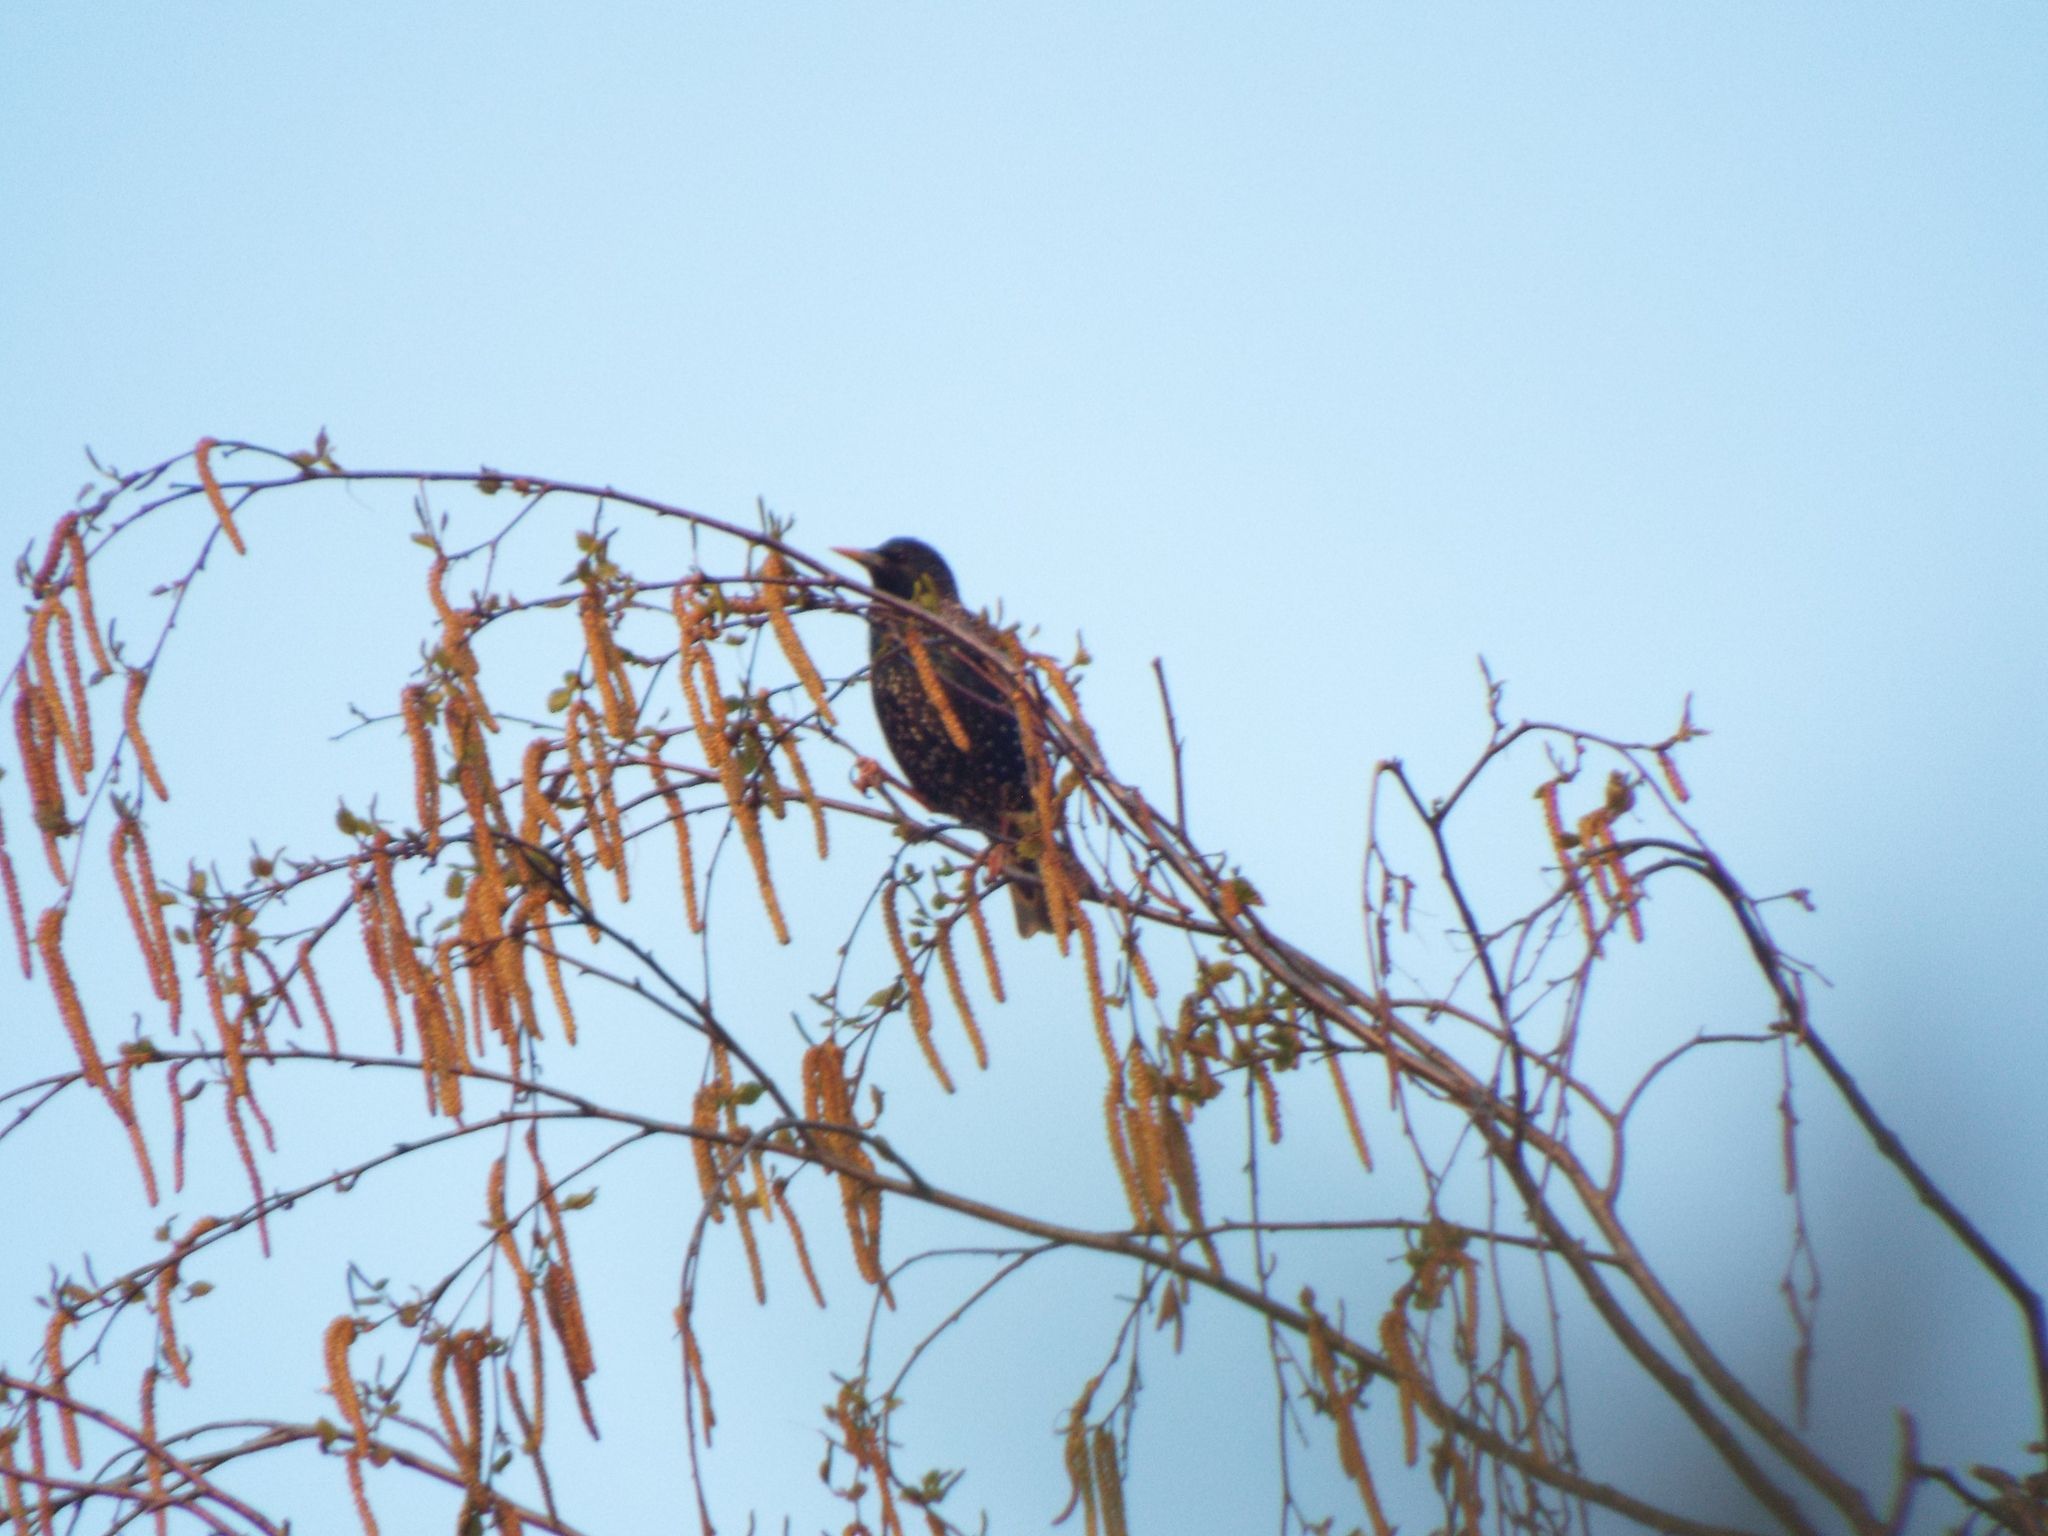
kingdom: Animalia
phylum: Chordata
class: Aves
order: Passeriformes
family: Sturnidae
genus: Sturnus
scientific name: Sturnus vulgaris
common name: Common starling
